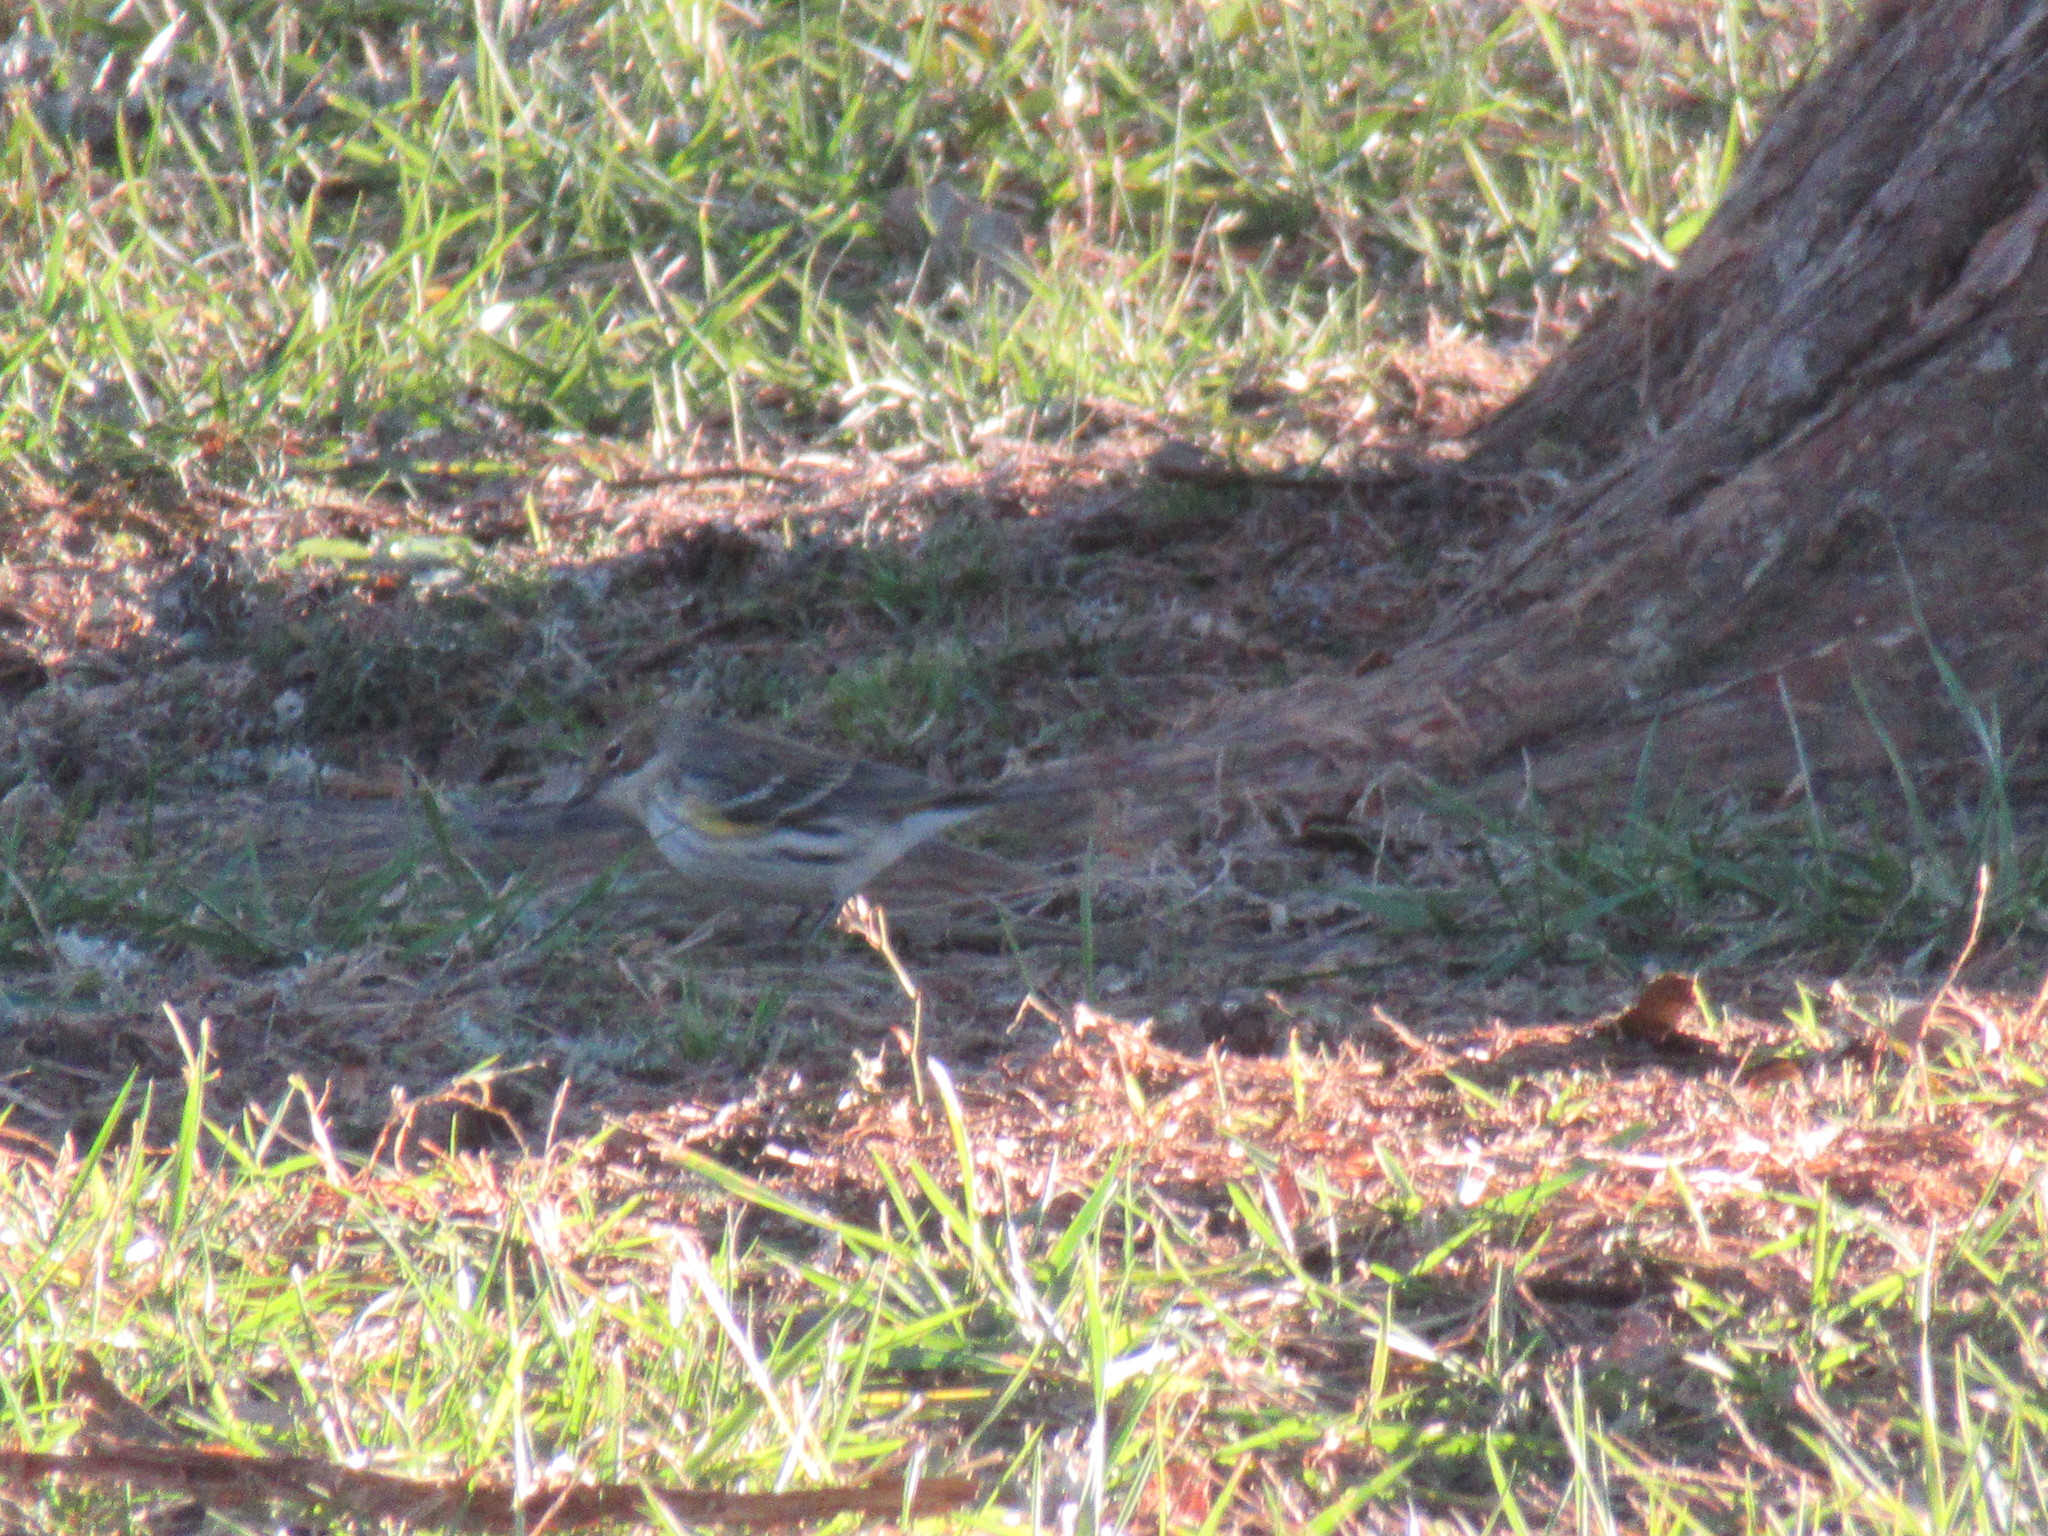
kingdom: Animalia
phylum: Chordata
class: Aves
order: Passeriformes
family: Parulidae
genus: Setophaga
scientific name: Setophaga coronata
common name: Myrtle warbler
